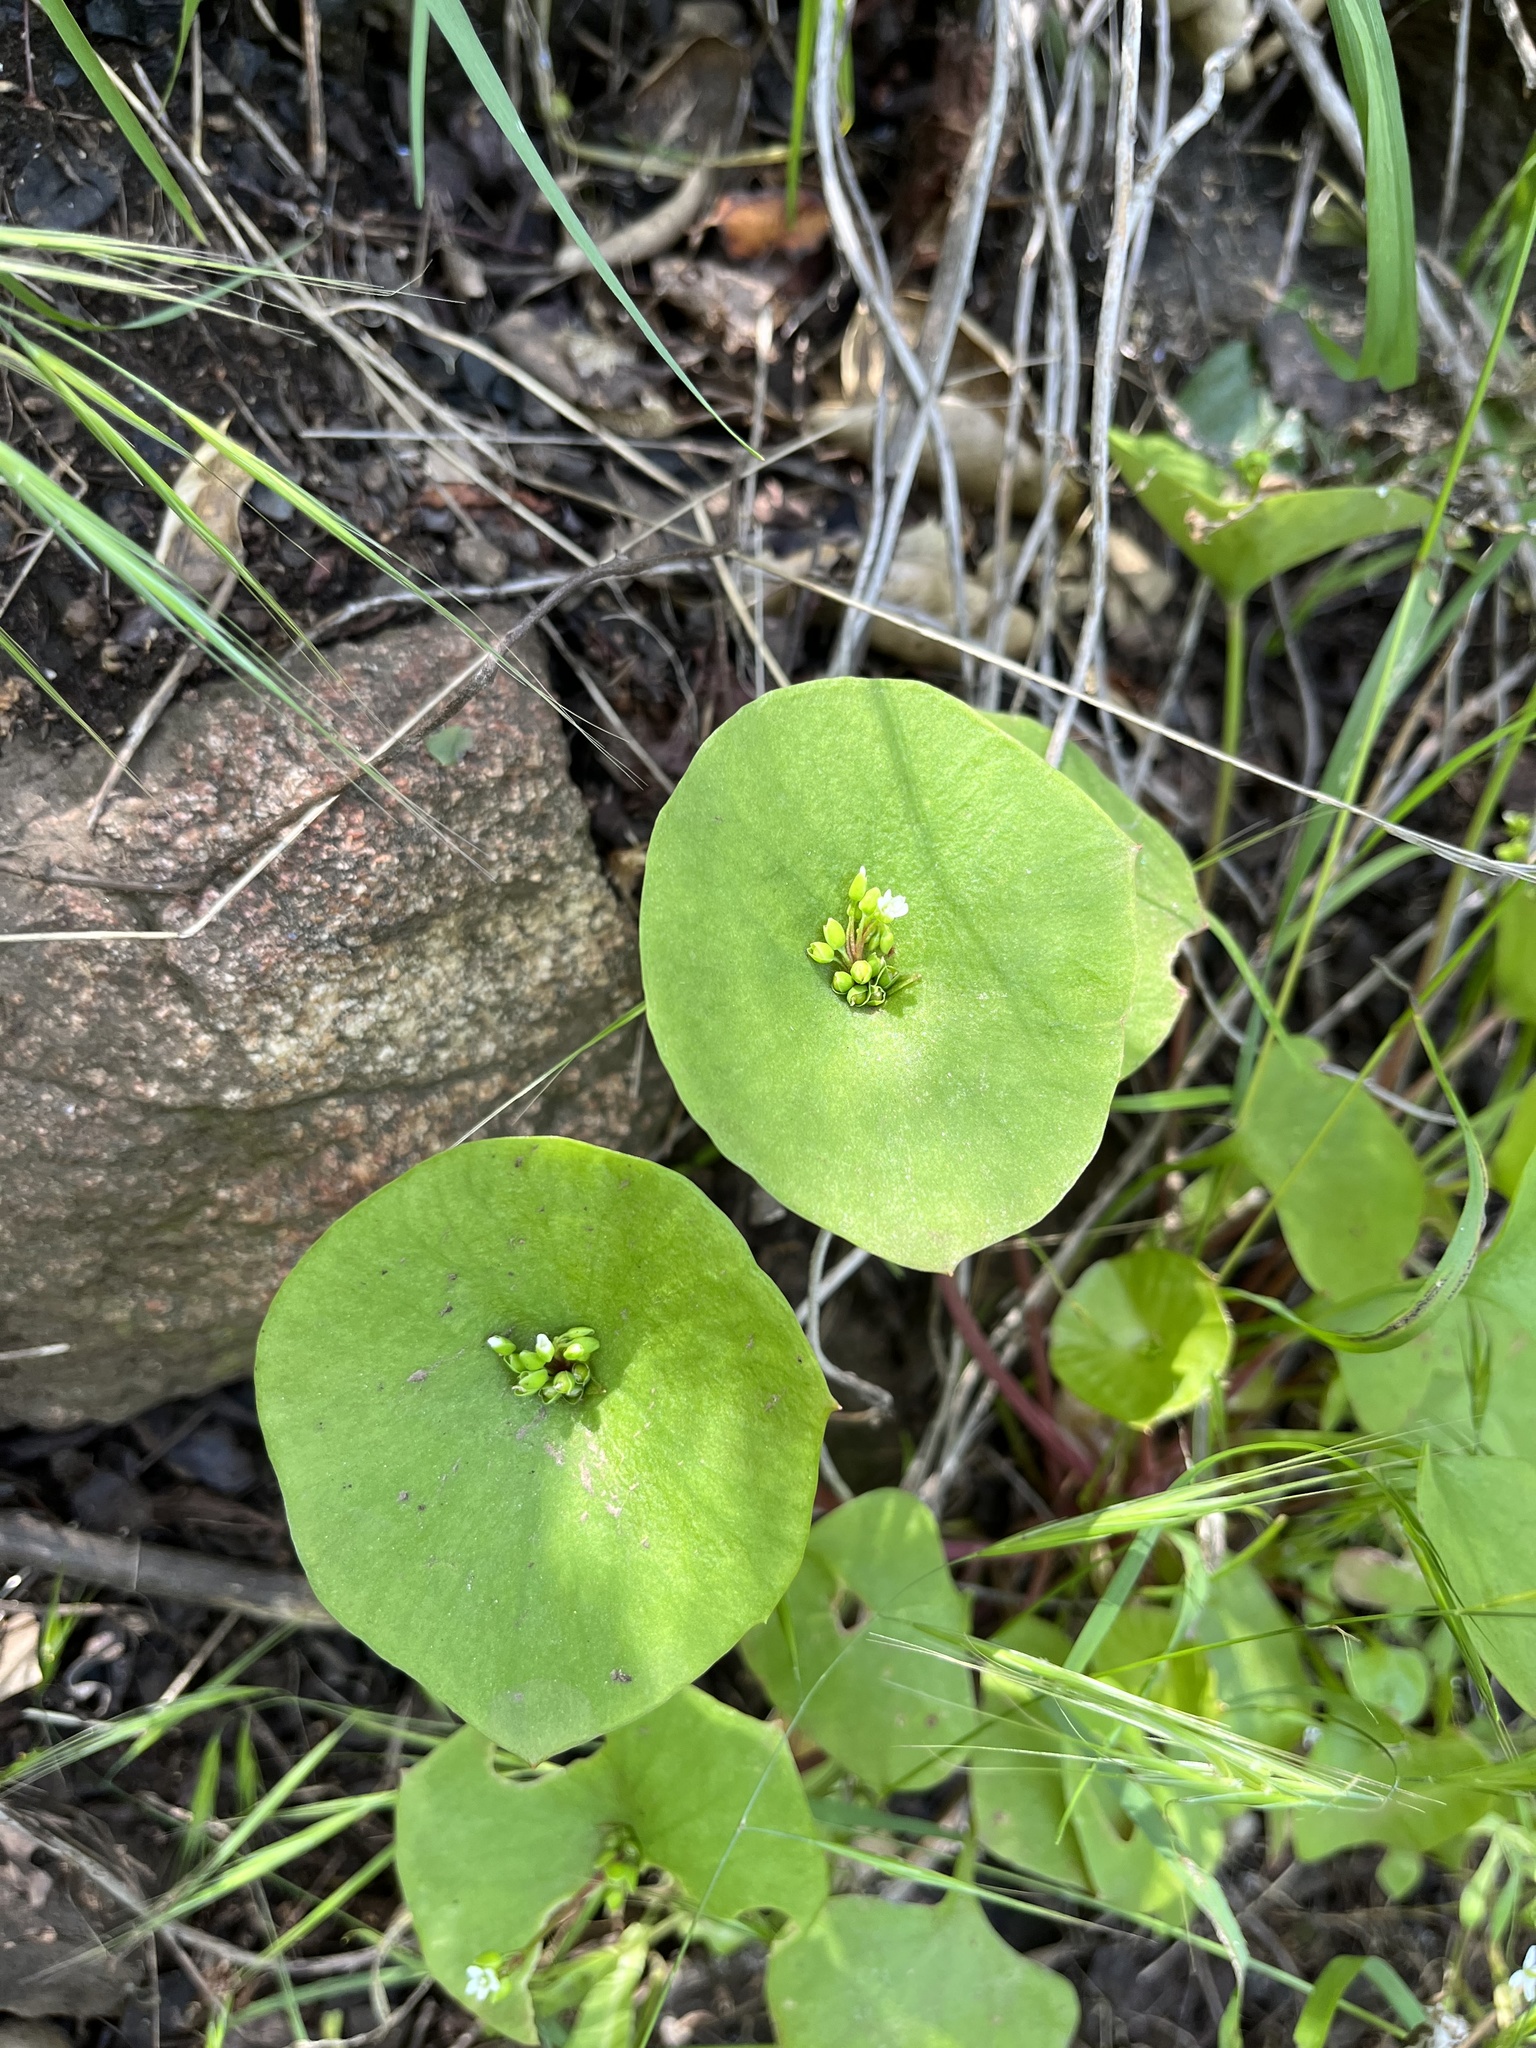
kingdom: Plantae
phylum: Tracheophyta
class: Magnoliopsida
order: Caryophyllales
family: Montiaceae
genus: Claytonia
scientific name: Claytonia perfoliata
